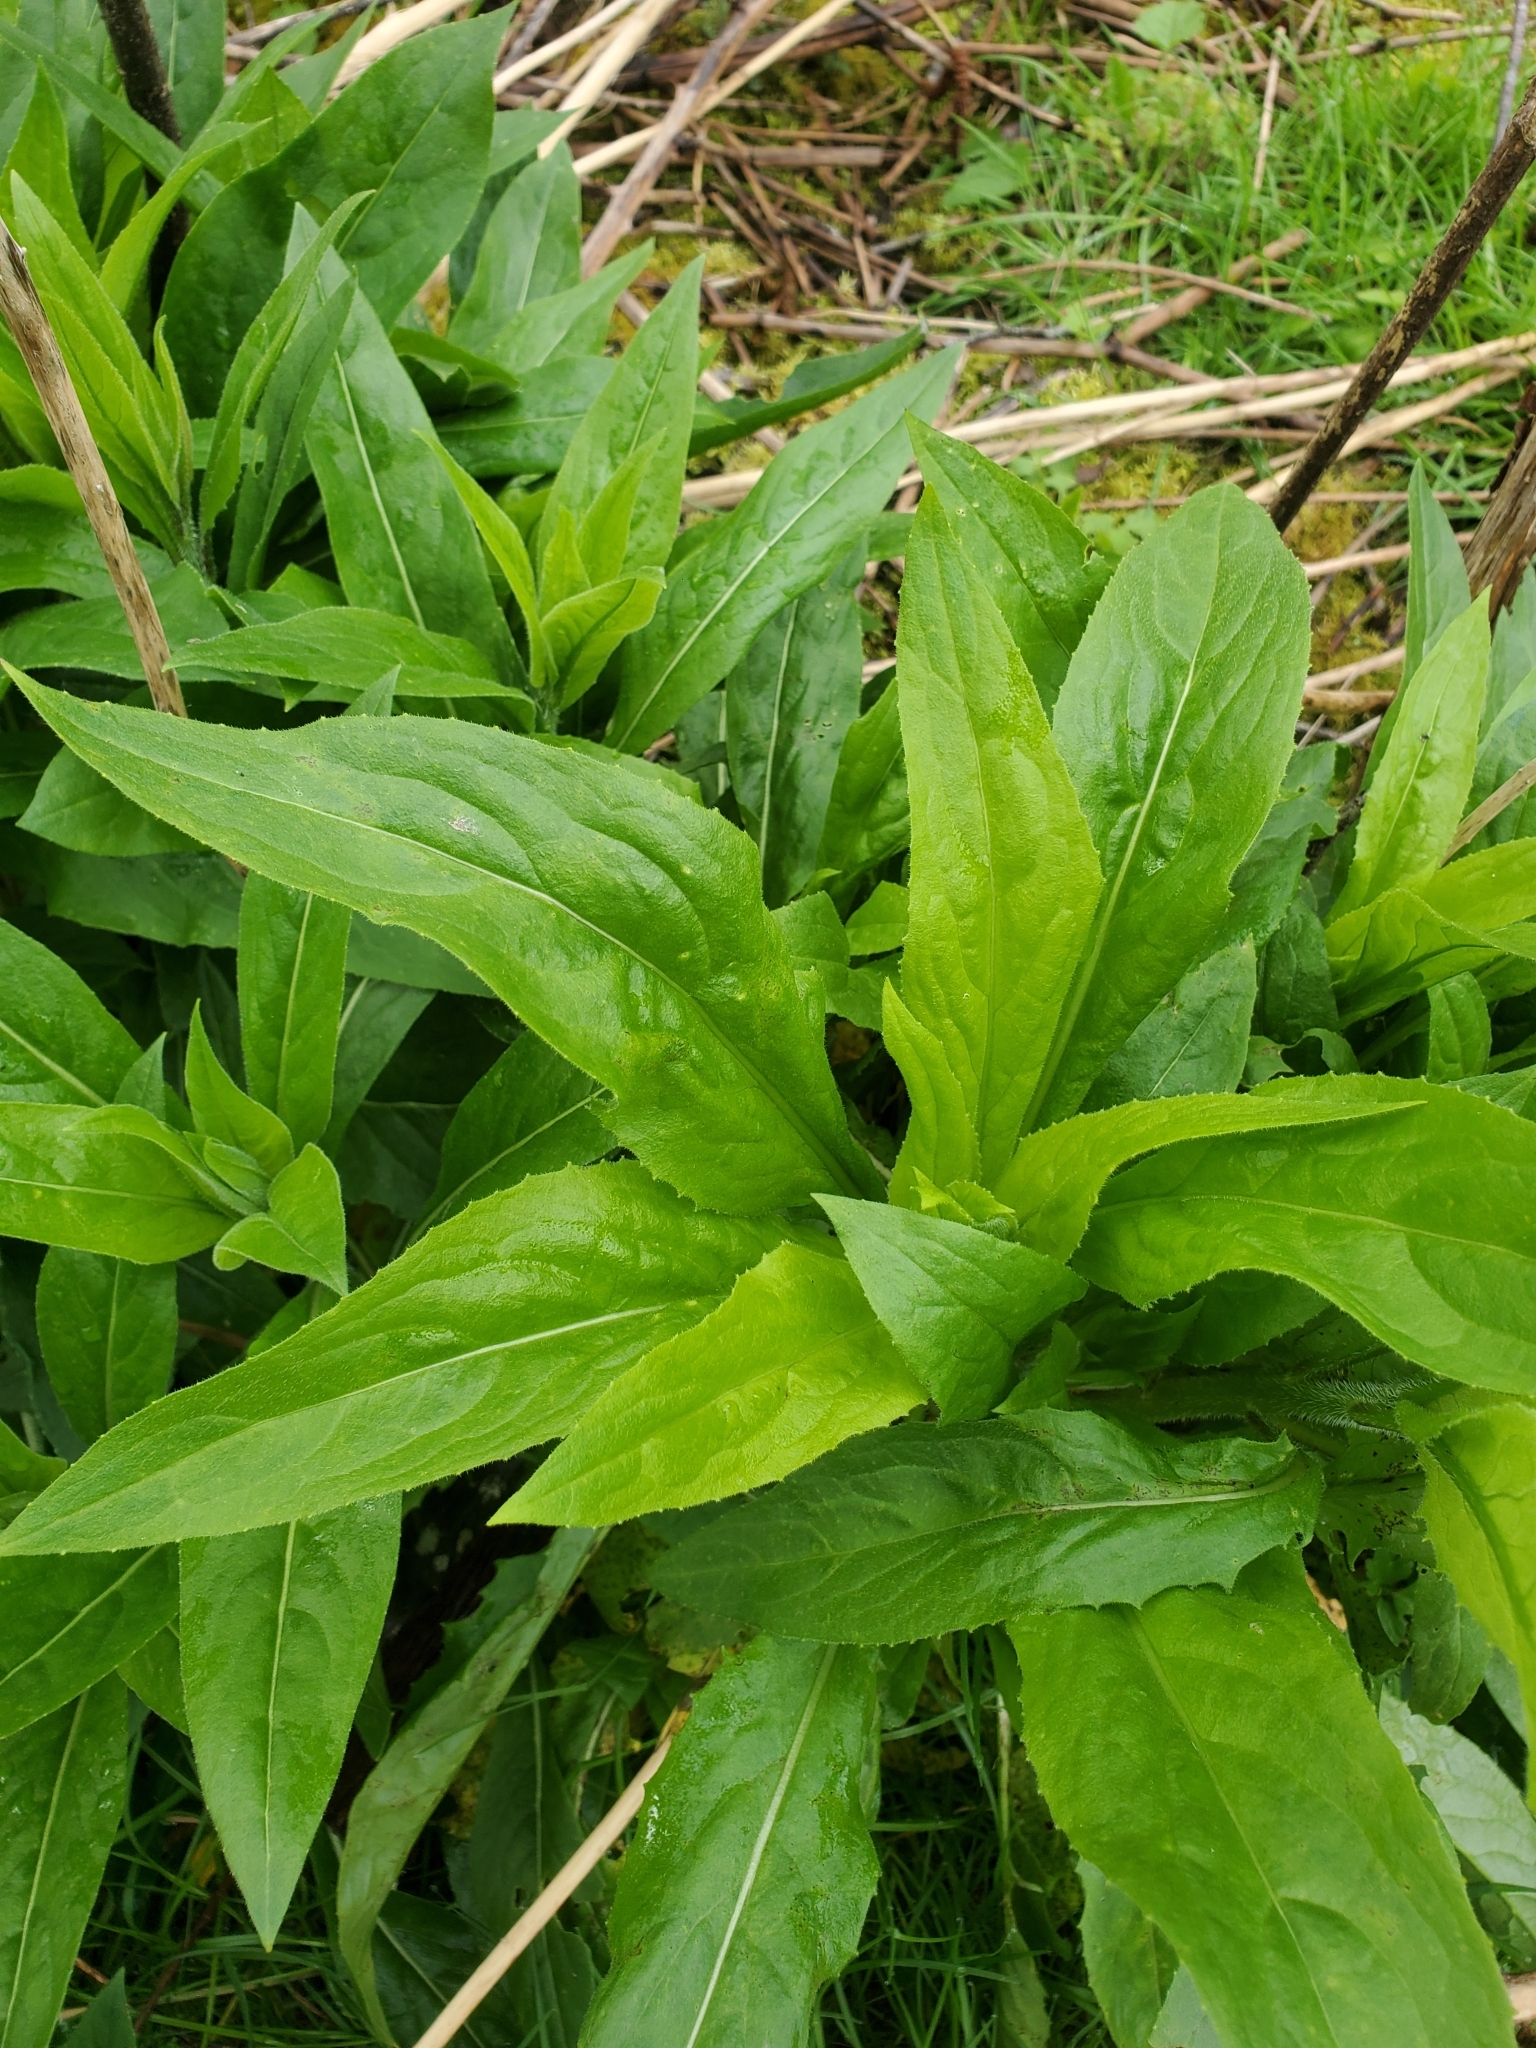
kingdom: Plantae
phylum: Tracheophyta
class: Magnoliopsida
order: Brassicales
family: Brassicaceae
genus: Hesperis
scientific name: Hesperis matronalis
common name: Dame's-violet
